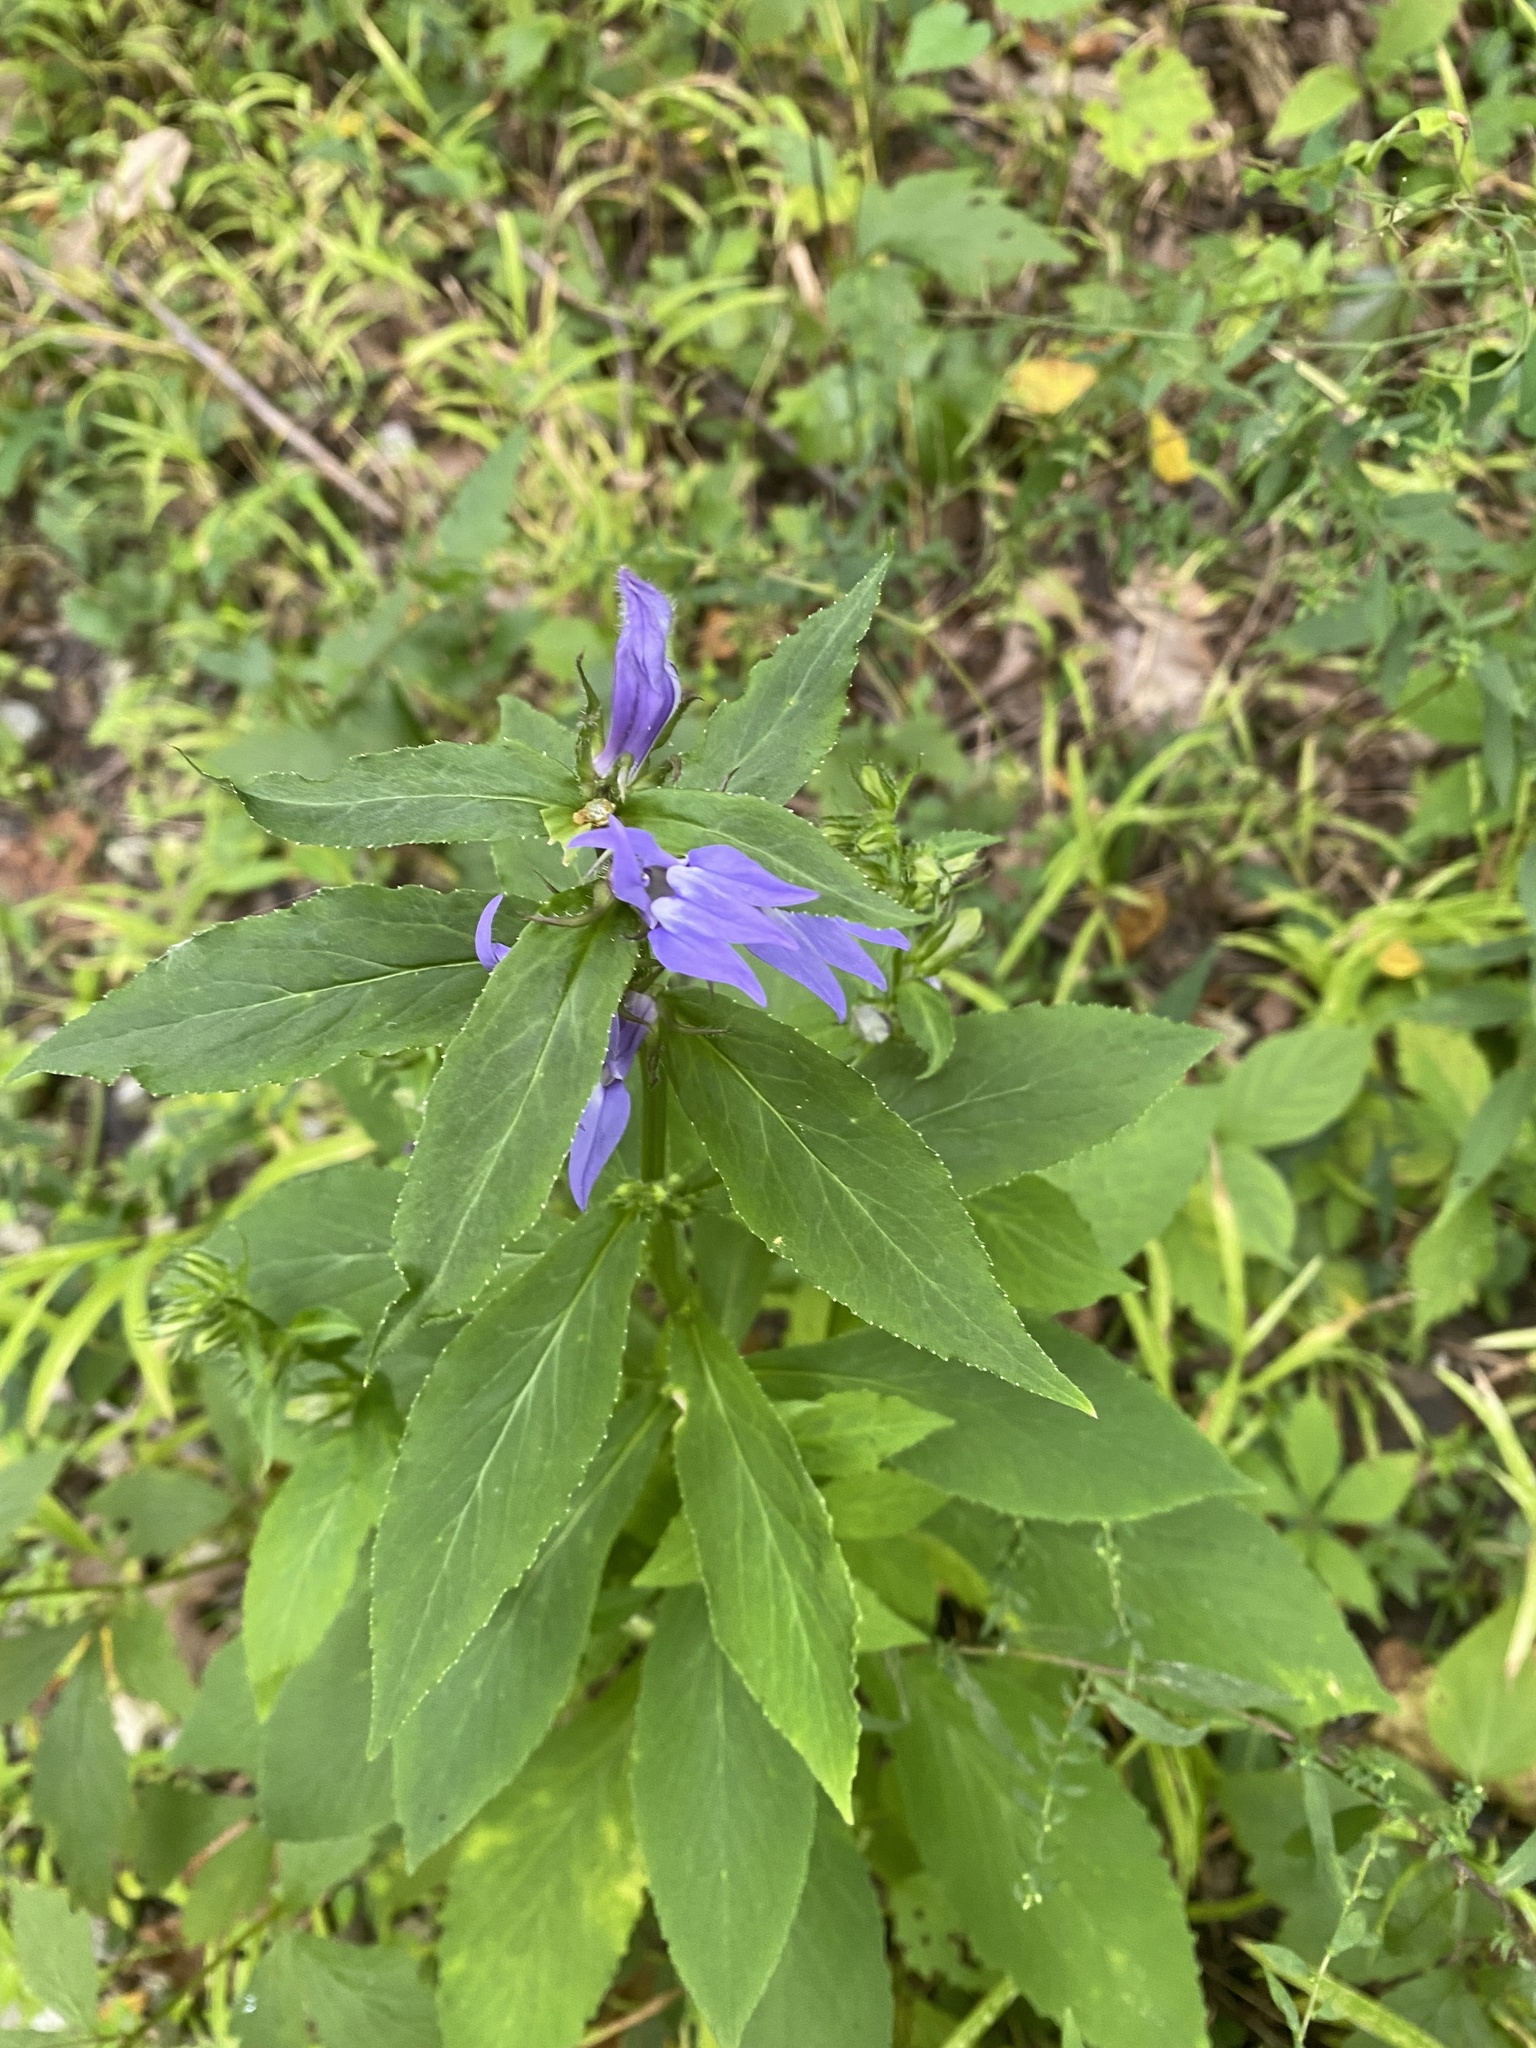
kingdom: Plantae
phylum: Tracheophyta
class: Magnoliopsida
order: Asterales
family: Campanulaceae
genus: Lobelia
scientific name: Lobelia siphilitica
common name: Great lobelia
